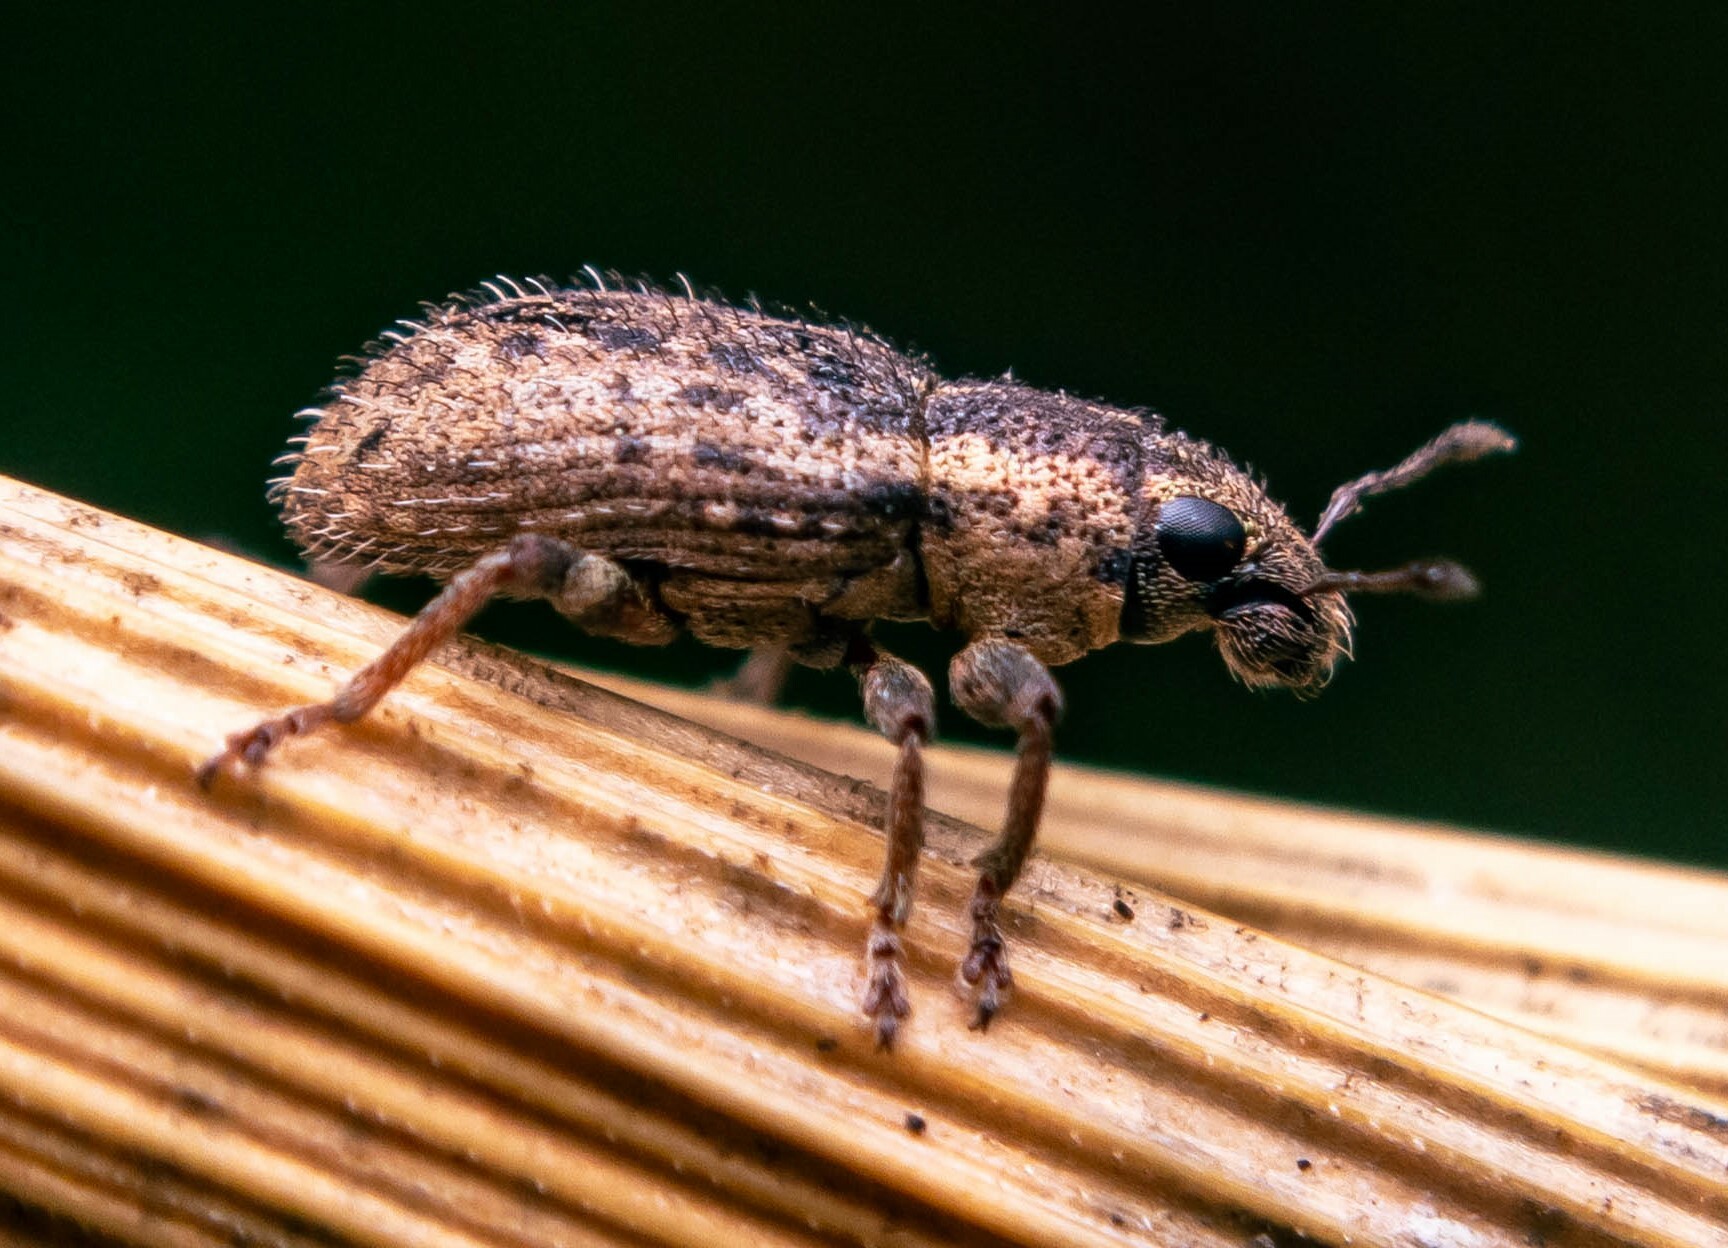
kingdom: Animalia
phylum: Arthropoda
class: Insecta
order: Coleoptera
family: Curculionidae
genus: Sitona
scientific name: Sitona hispidulus
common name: Clover weevil
